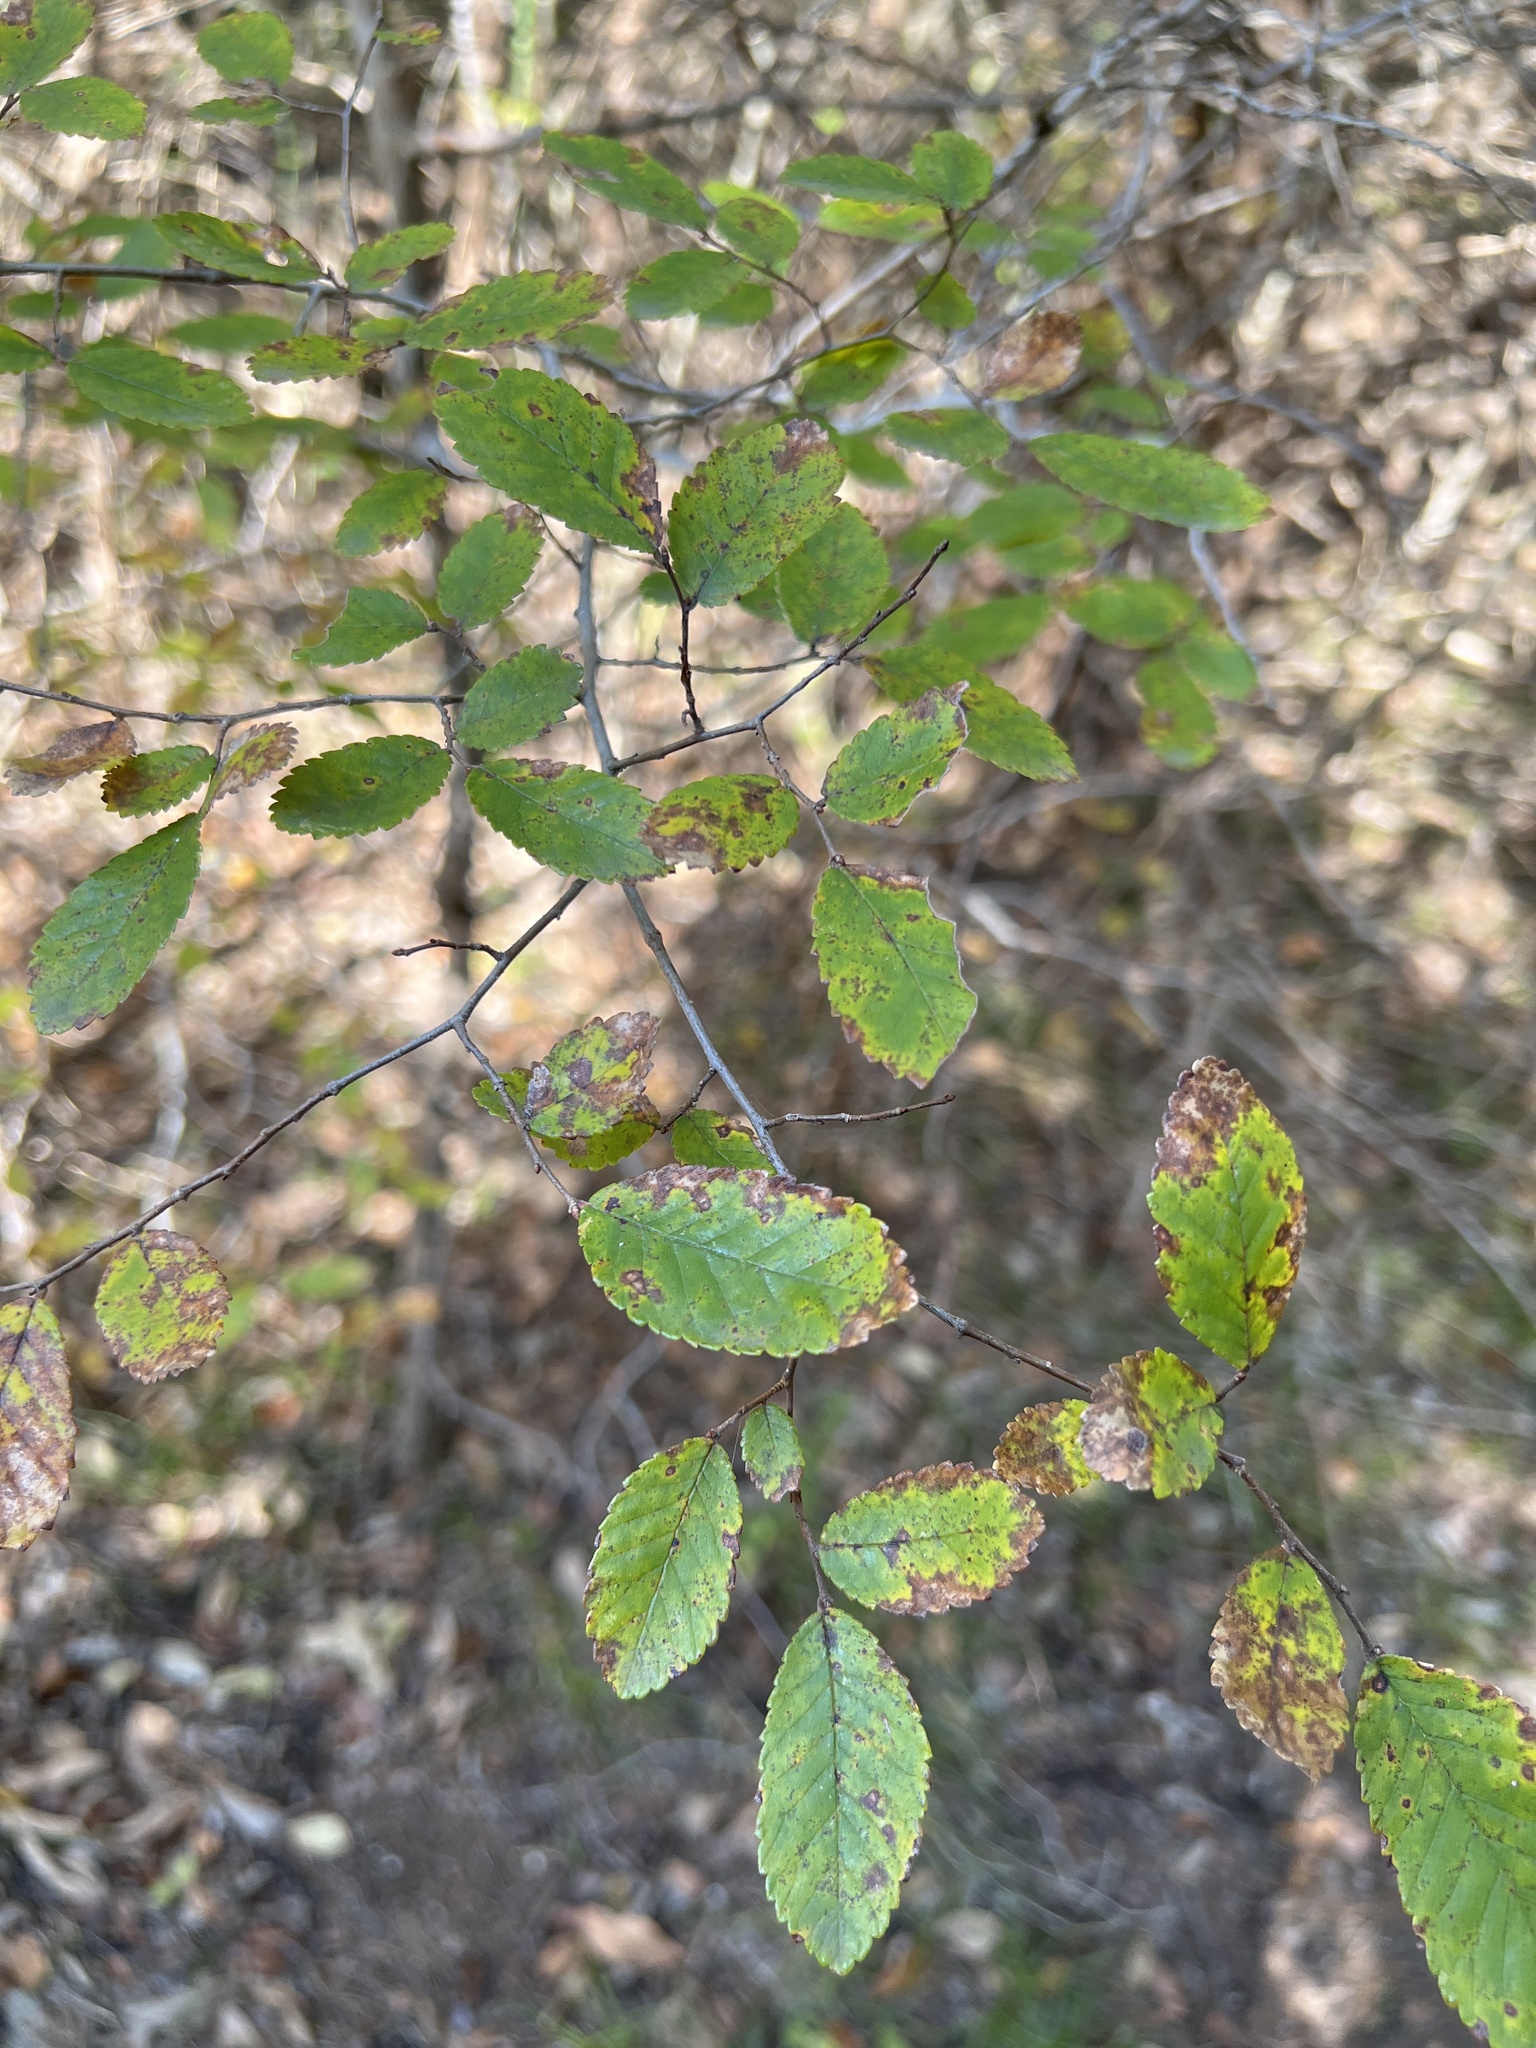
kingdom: Plantae
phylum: Tracheophyta
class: Magnoliopsida
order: Rosales
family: Ulmaceae
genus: Ulmus
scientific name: Ulmus crassifolia
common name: Basket elm
